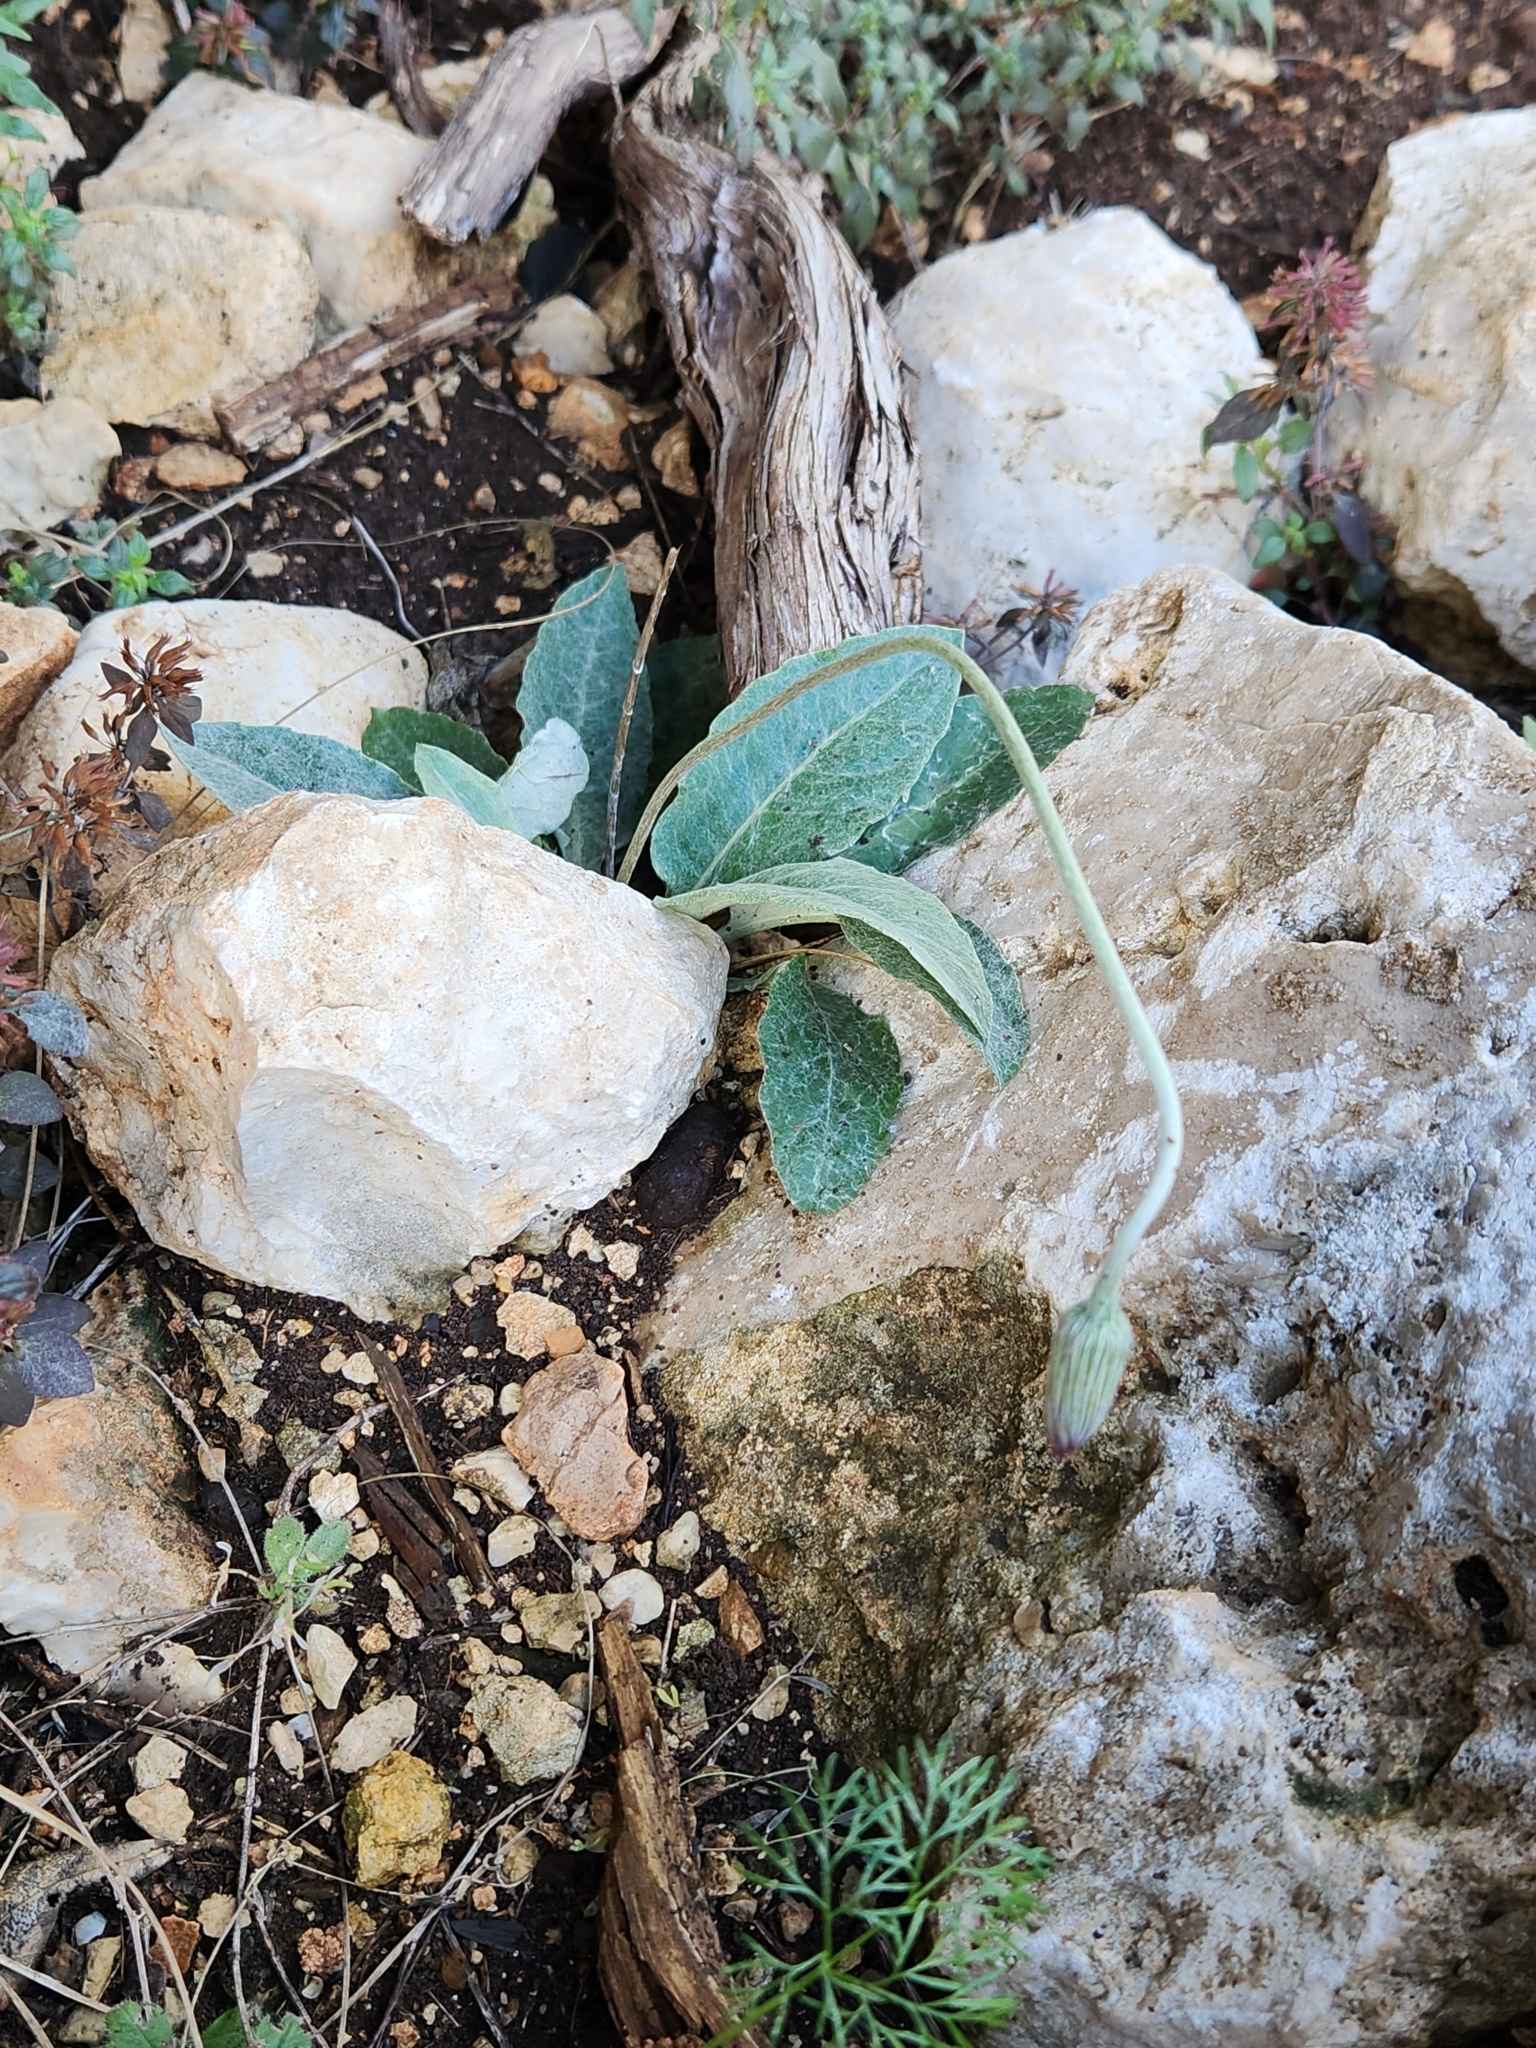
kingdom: Plantae
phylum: Tracheophyta
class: Magnoliopsida
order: Asterales
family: Asteraceae
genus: Chaptalia
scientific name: Chaptalia texana
